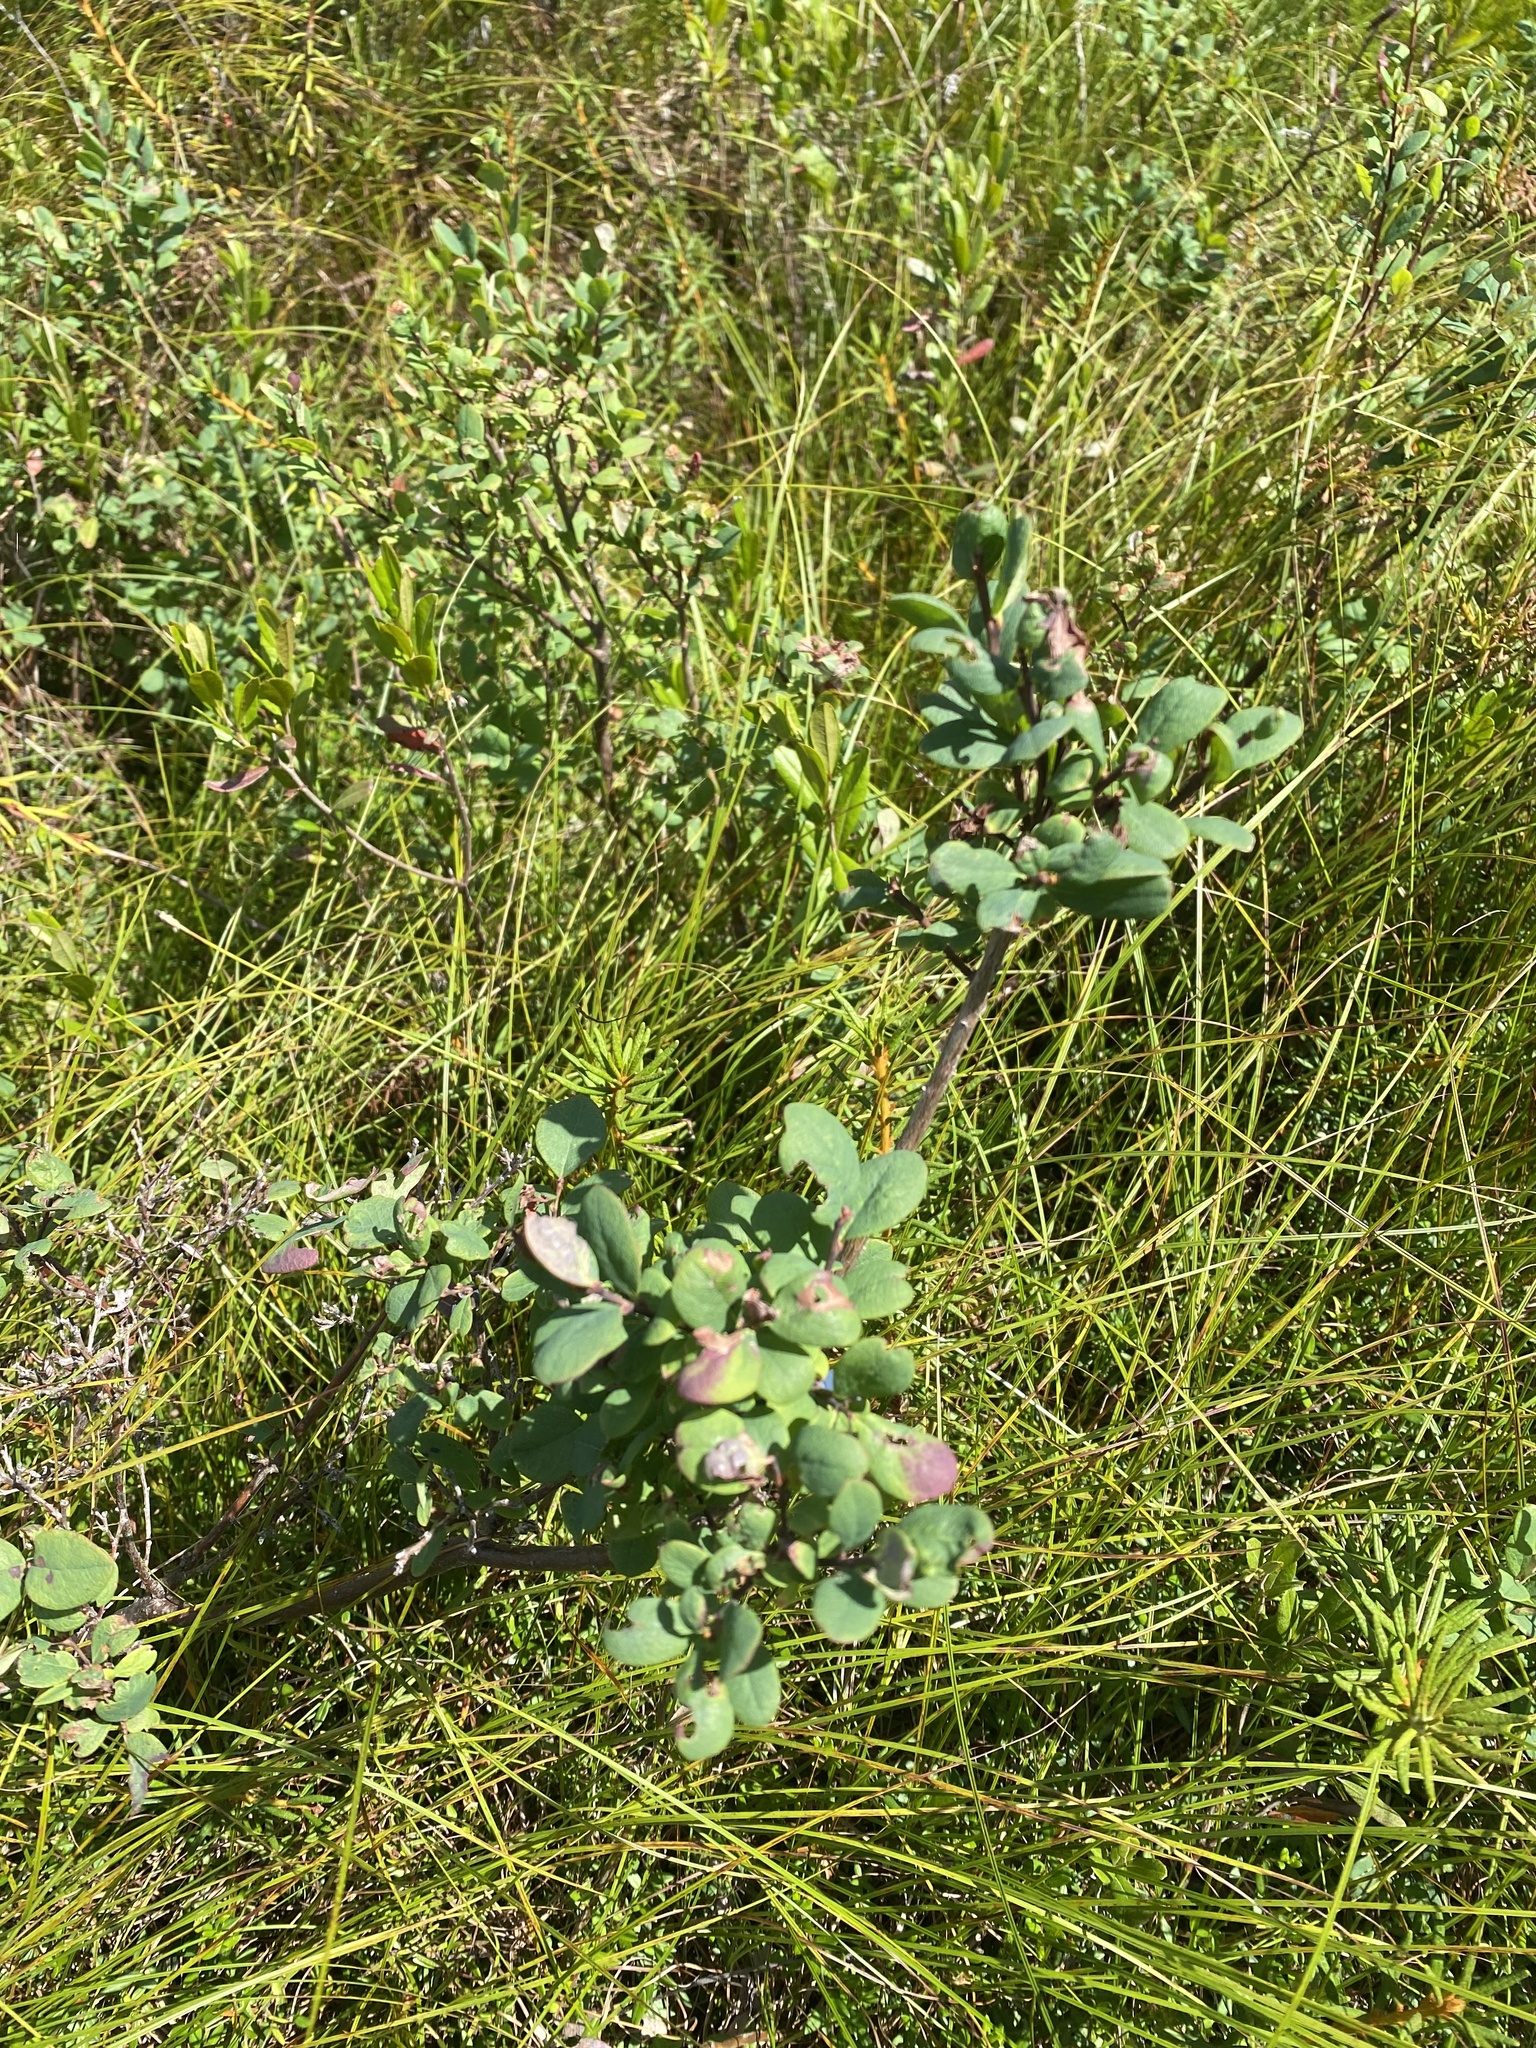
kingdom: Plantae
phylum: Tracheophyta
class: Magnoliopsida
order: Ericales
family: Ericaceae
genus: Vaccinium
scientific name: Vaccinium uliginosum
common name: Bog bilberry
